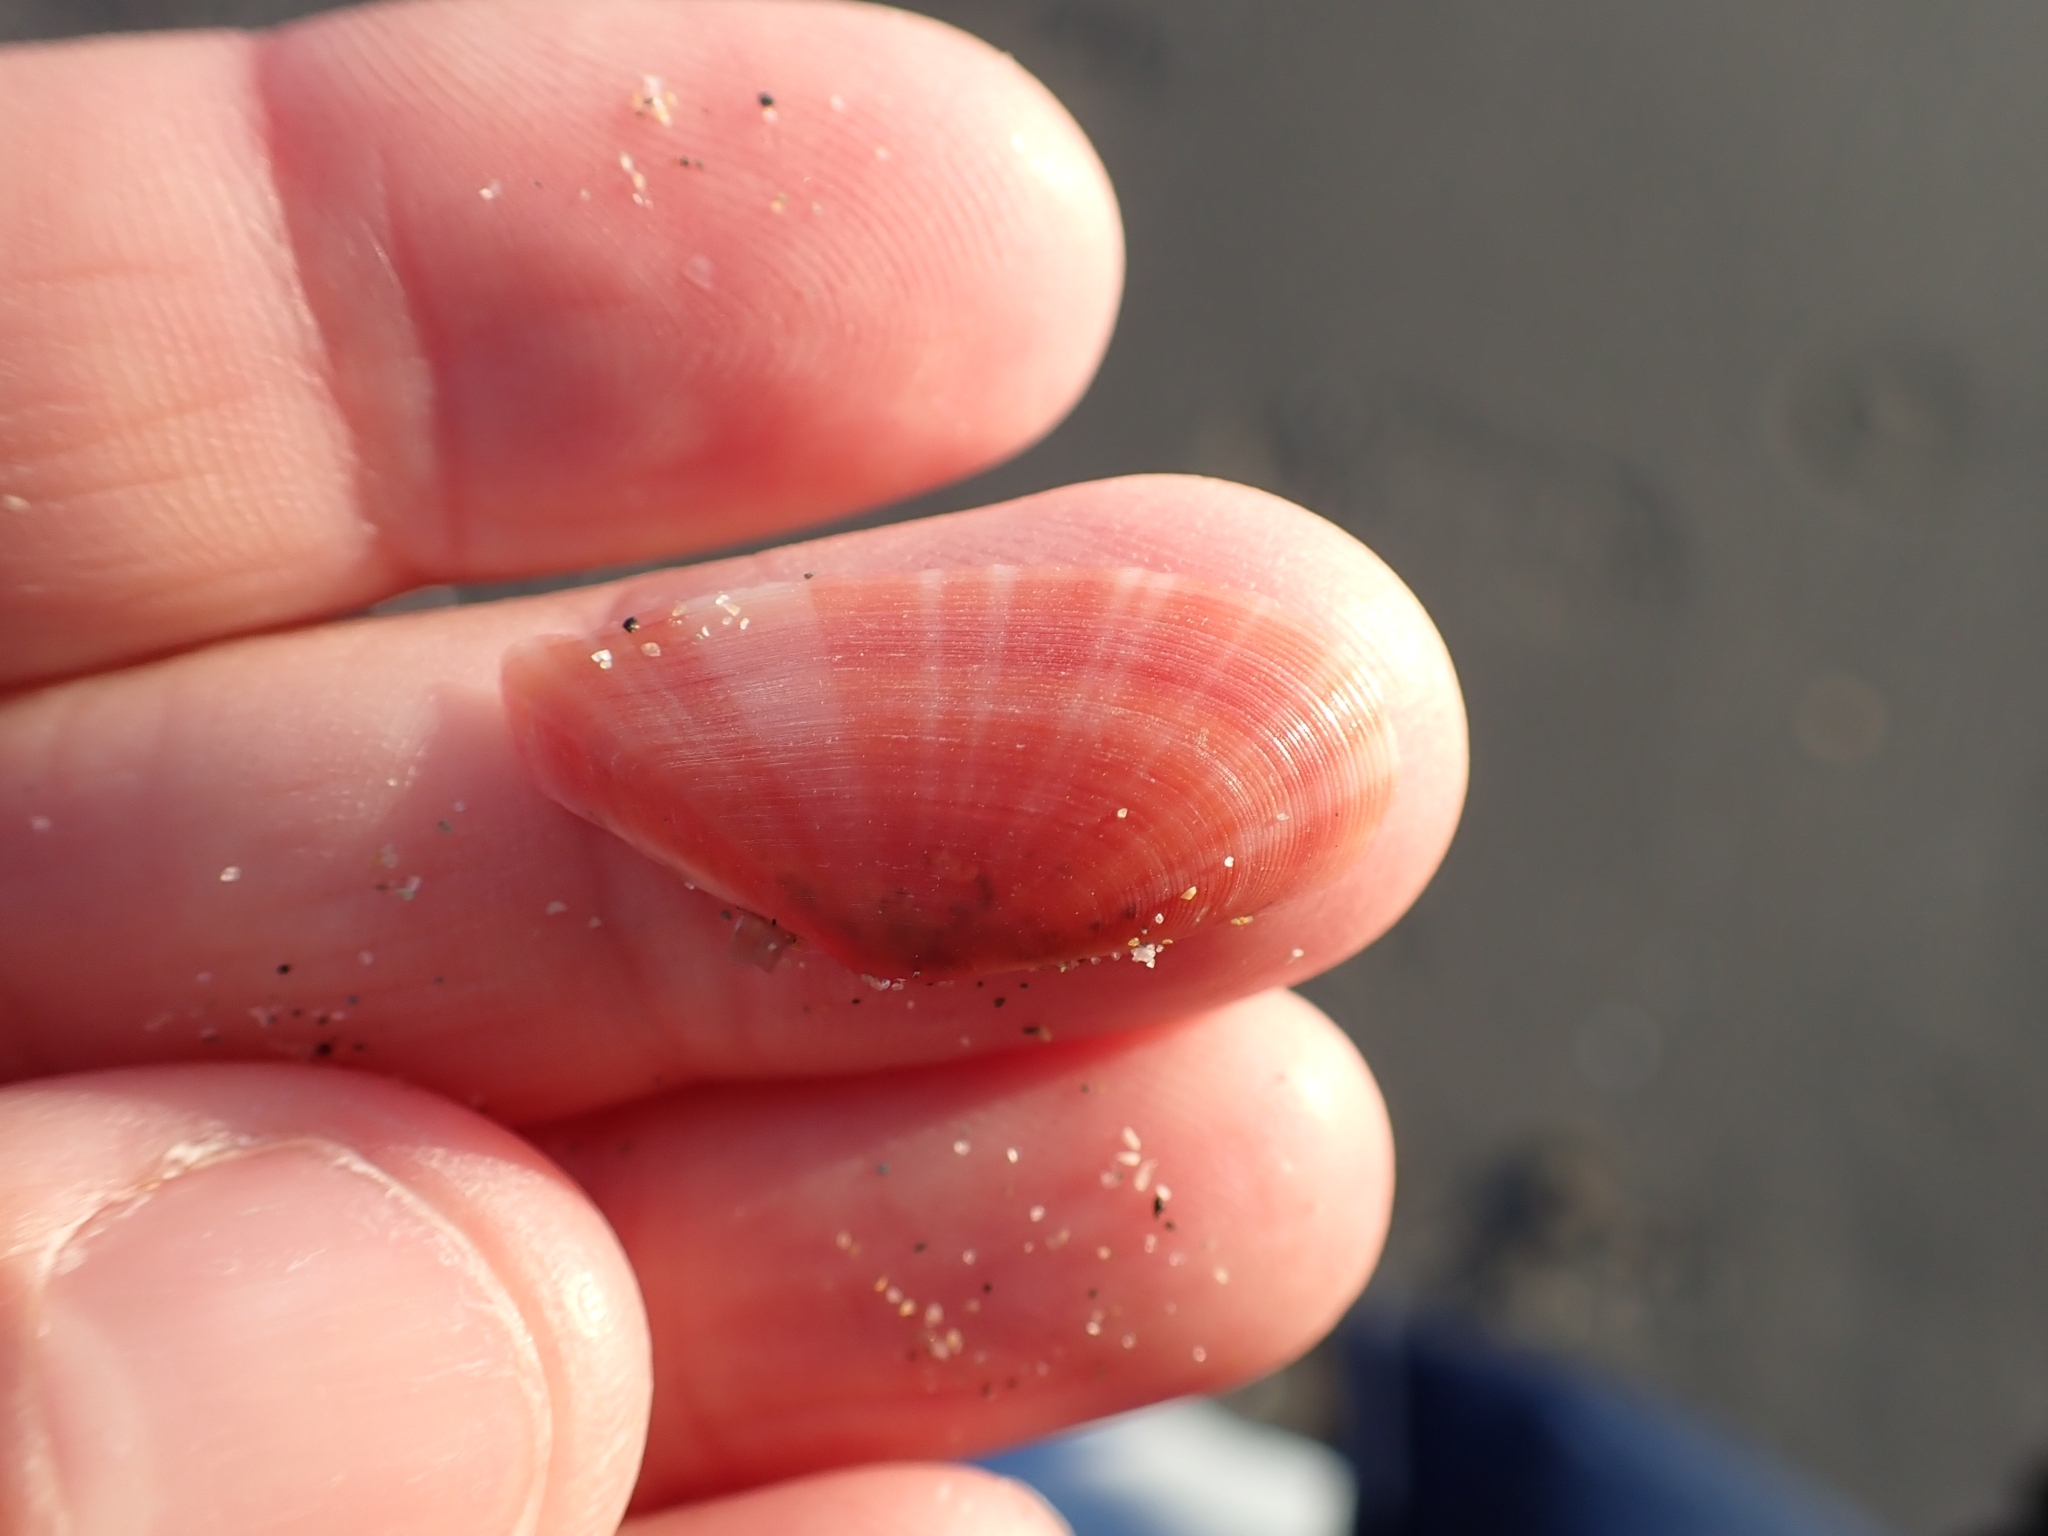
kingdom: Animalia
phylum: Mollusca
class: Bivalvia
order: Cardiida
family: Tellinidae
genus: Moerella
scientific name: Moerella pulchella
